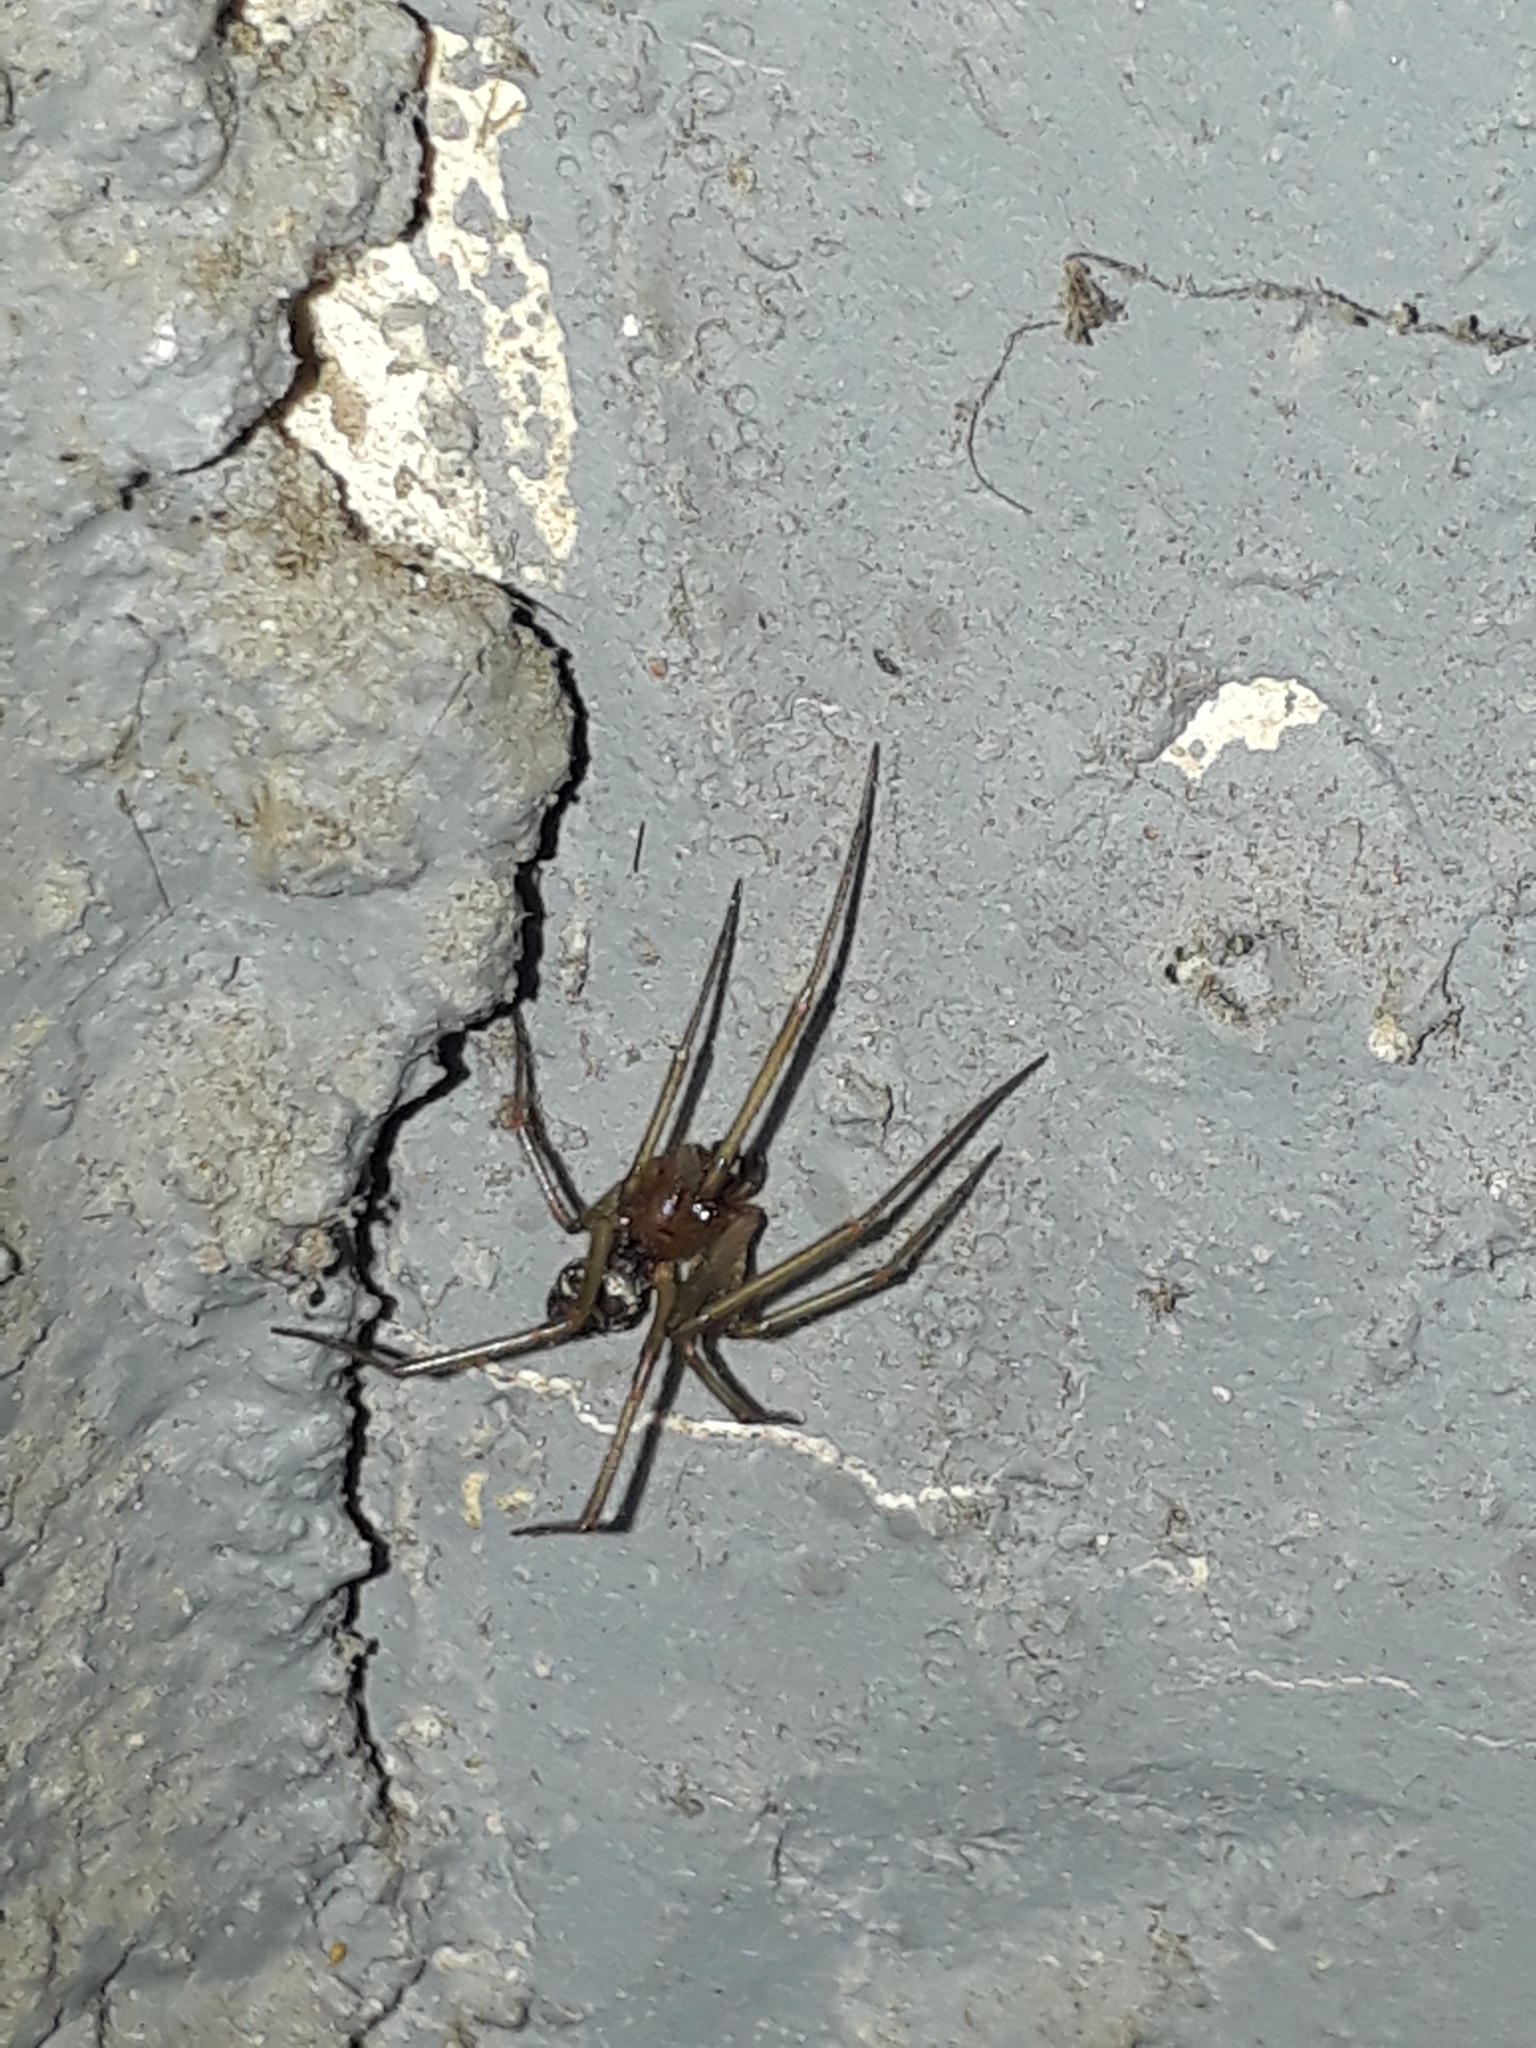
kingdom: Animalia
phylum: Arthropoda
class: Arachnida
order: Araneae
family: Theridiidae
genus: Steatoda
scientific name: Steatoda grossa
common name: False black widow
